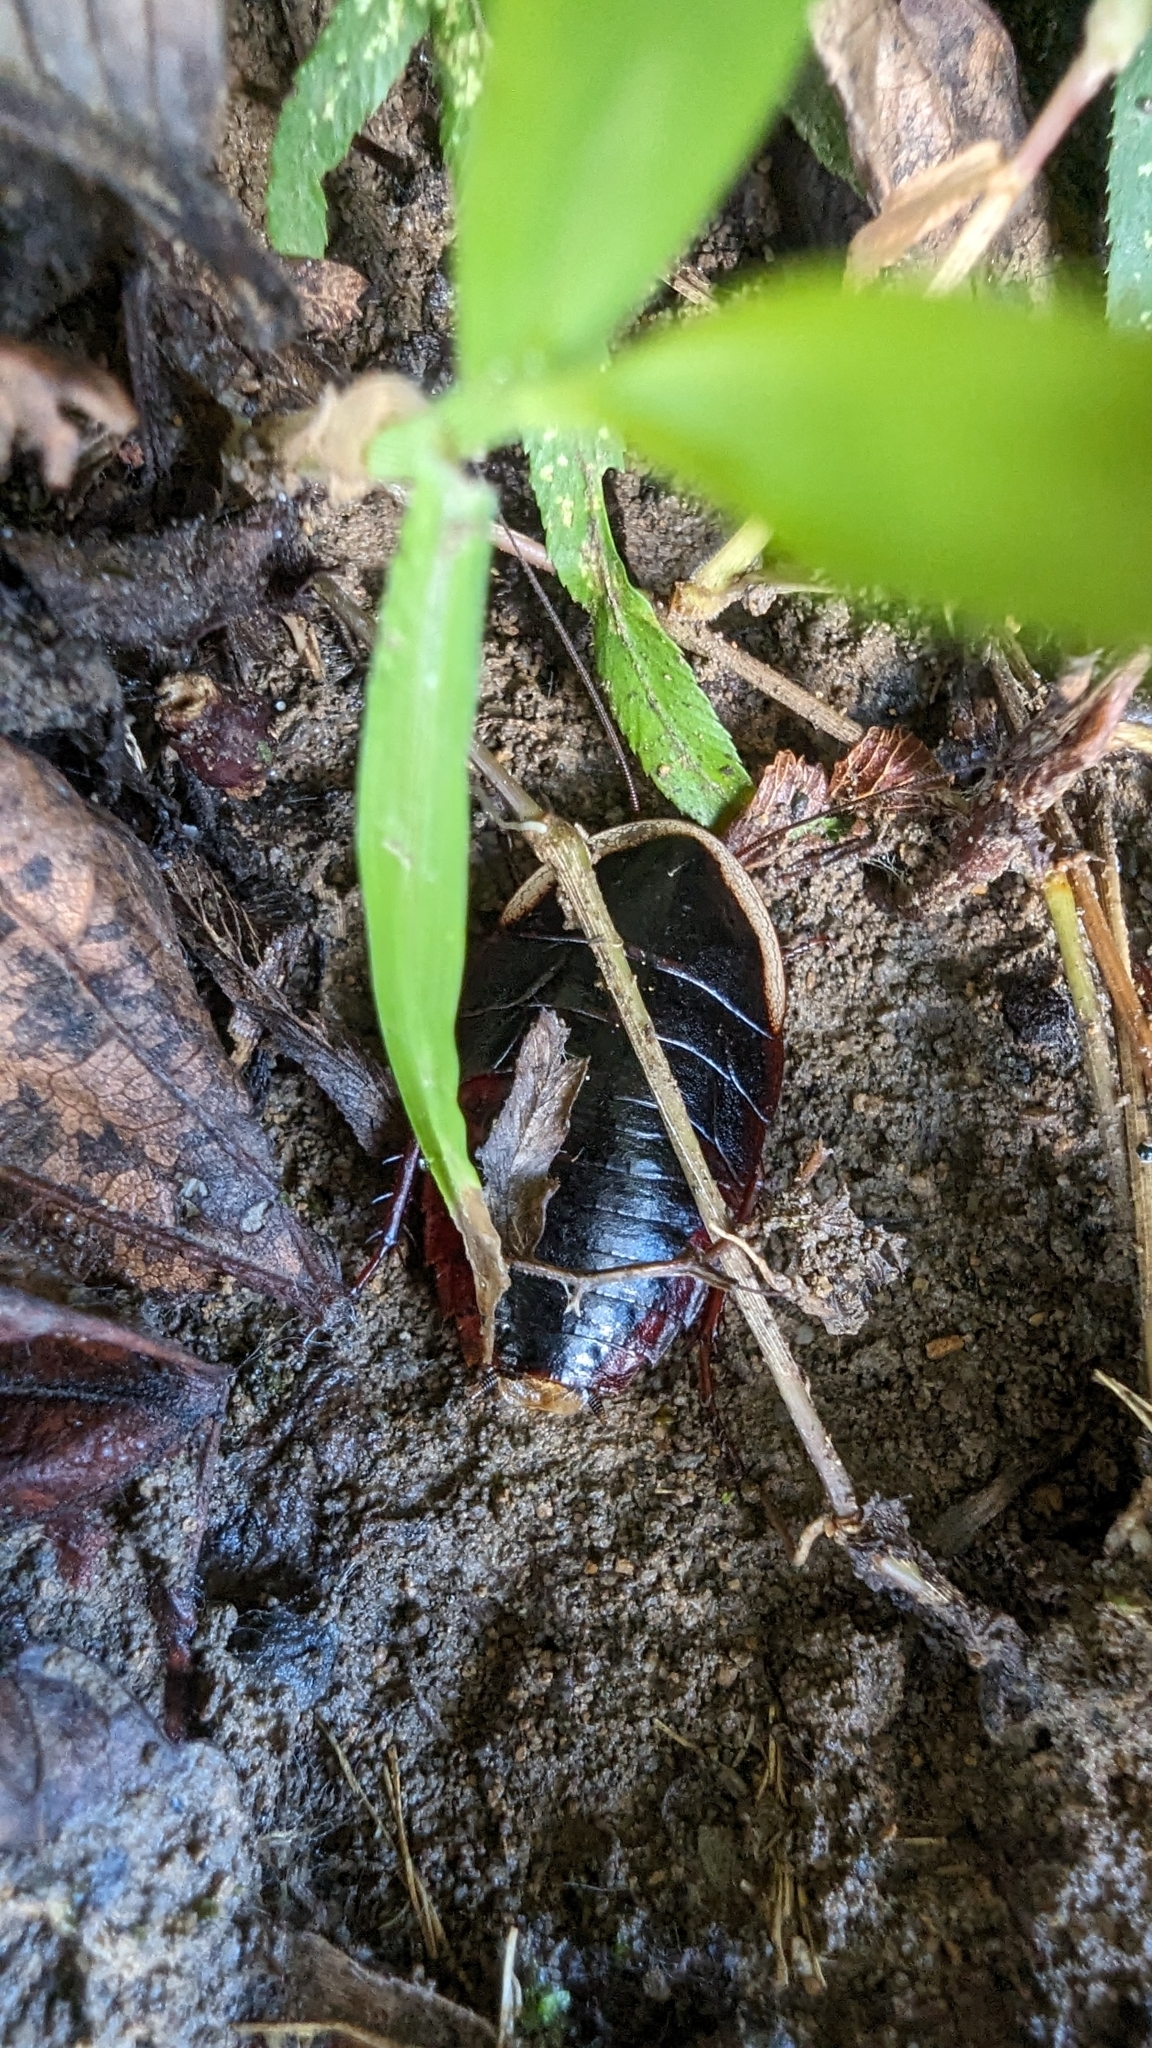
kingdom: Animalia
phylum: Arthropoda
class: Insecta
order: Blattodea
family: Blaberidae
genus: Opisthoplatia
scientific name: Opisthoplatia orientalis
